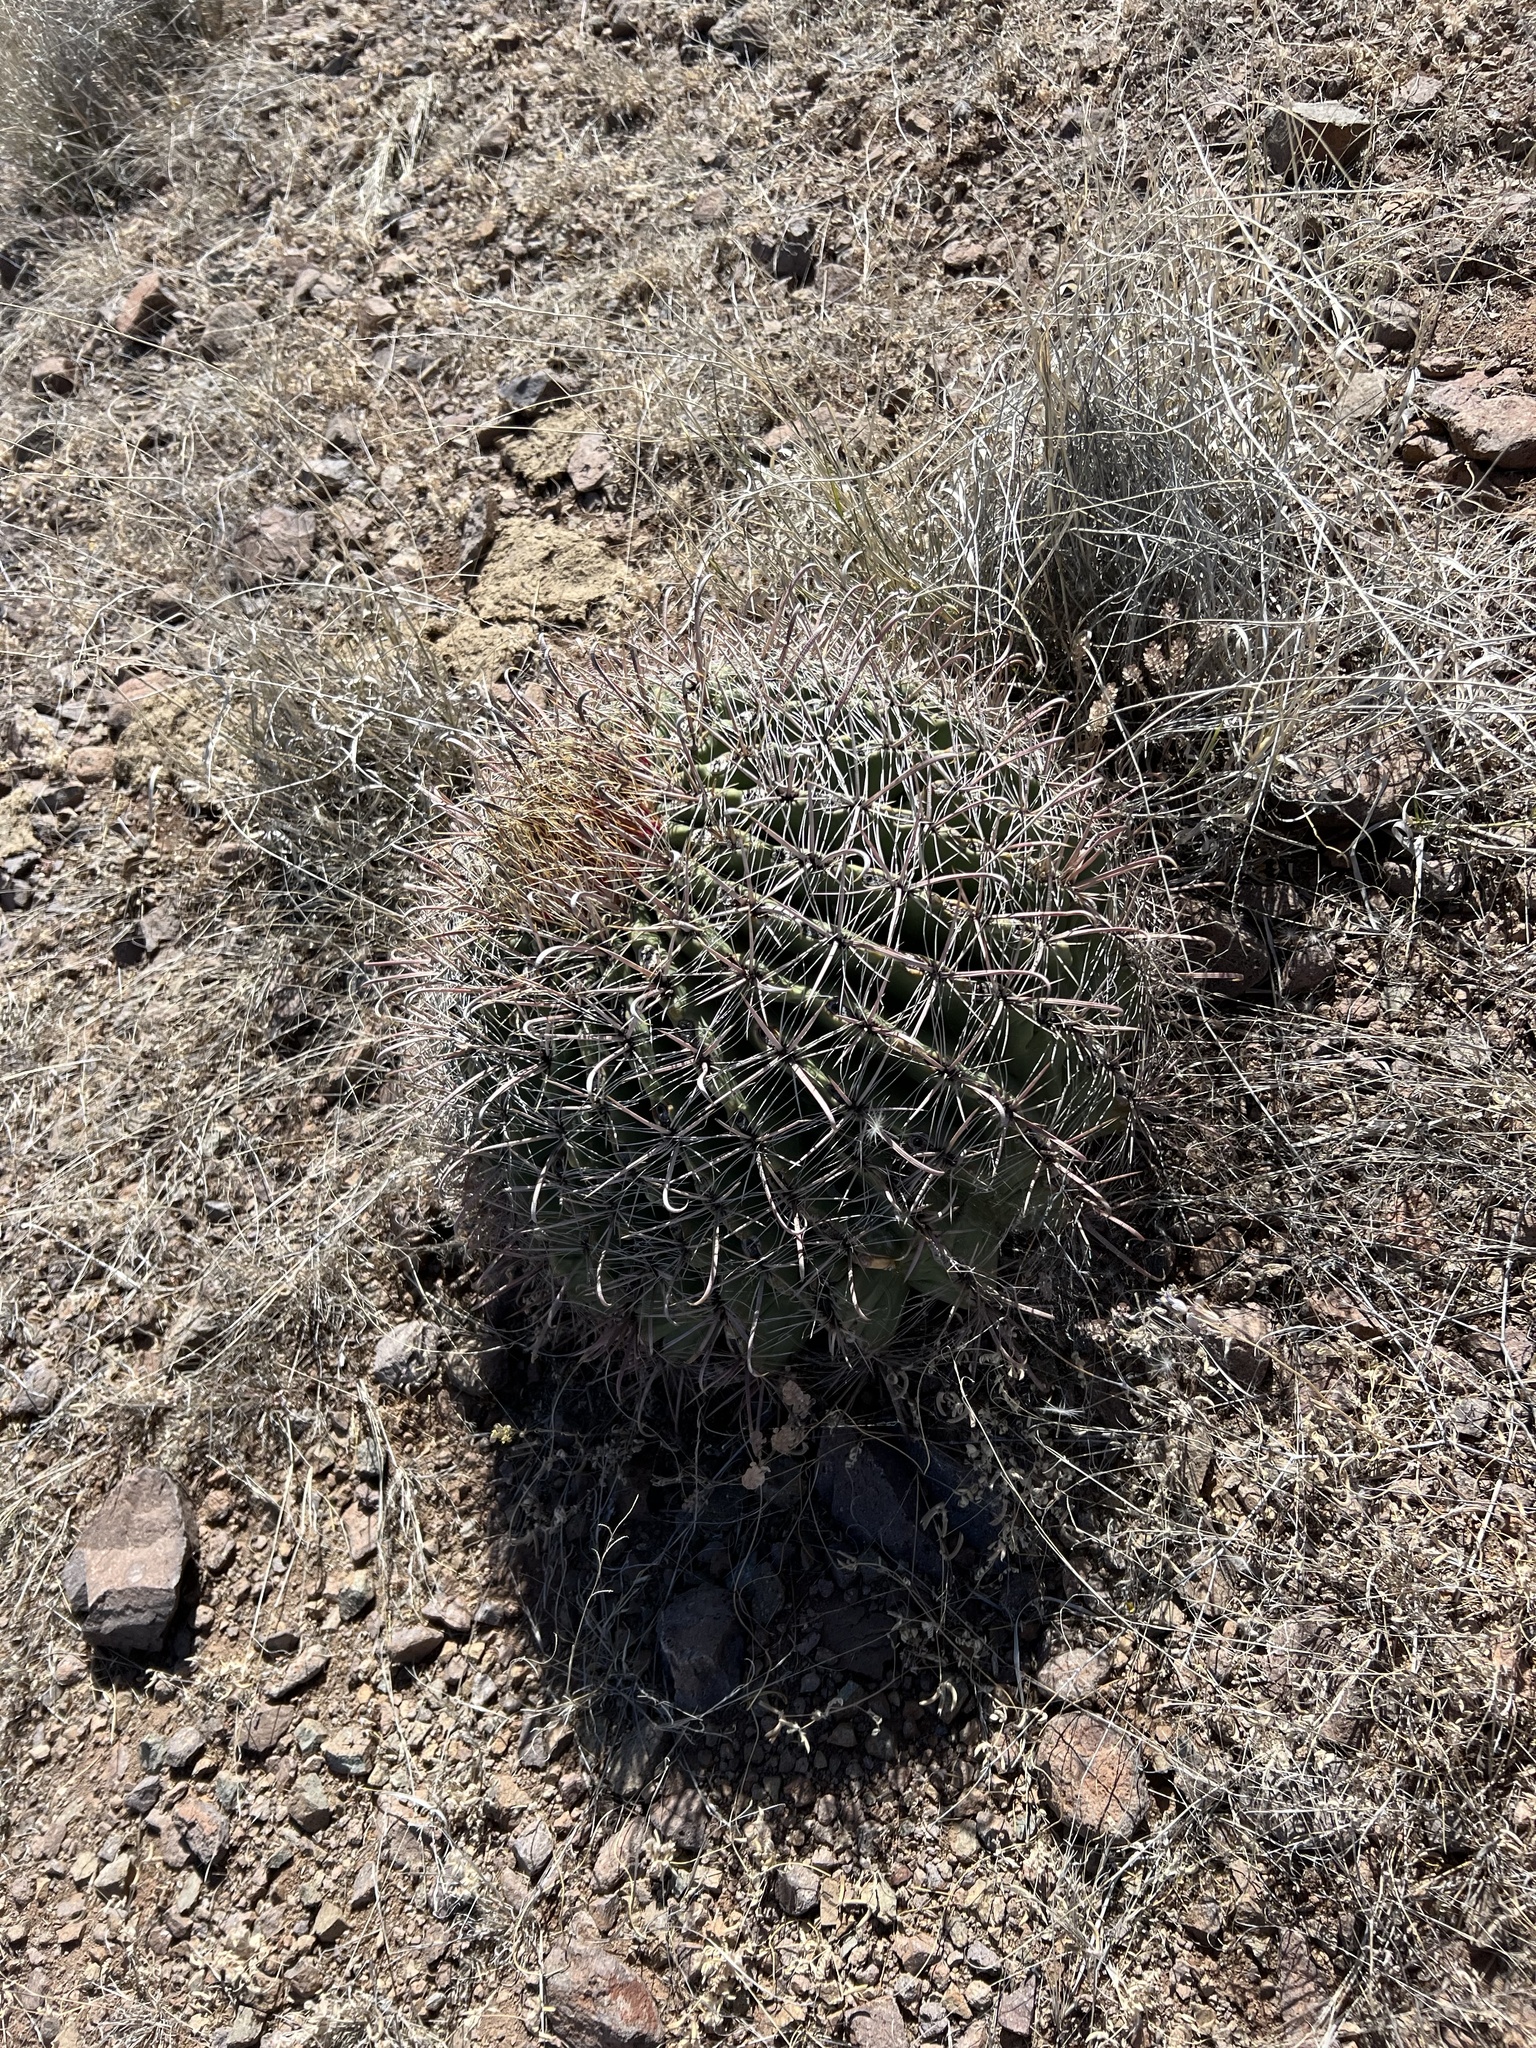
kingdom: Plantae
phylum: Tracheophyta
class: Magnoliopsida
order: Caryophyllales
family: Cactaceae
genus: Ferocactus
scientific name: Ferocactus wislizeni
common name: Candy barrel cactus
